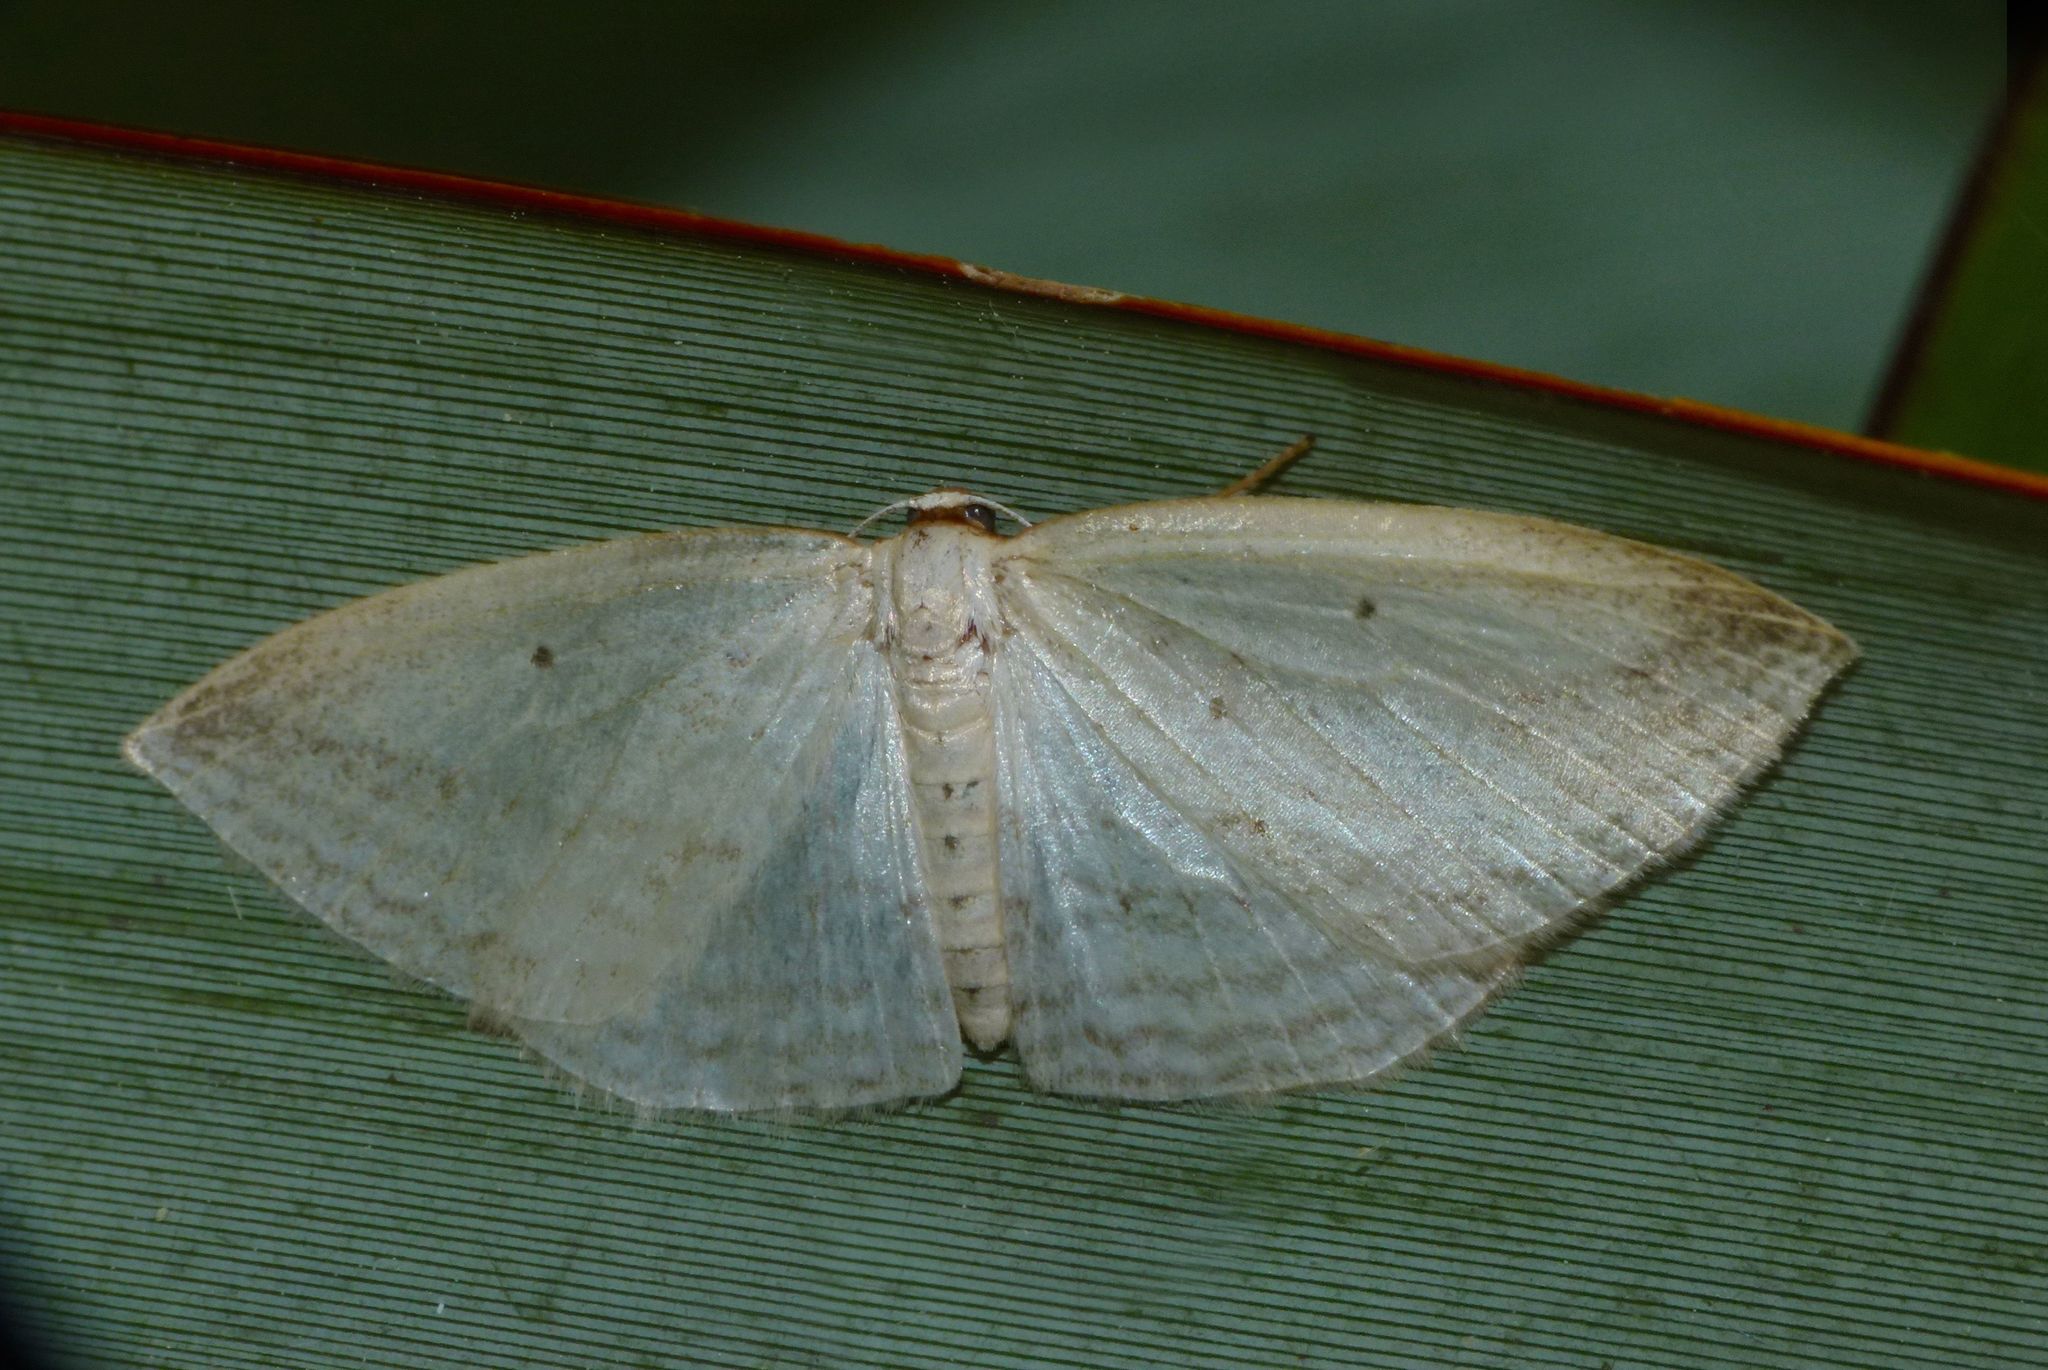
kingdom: Animalia
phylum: Arthropoda
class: Insecta
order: Lepidoptera
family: Geometridae
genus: Orthoclydon
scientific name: Orthoclydon praefectata
